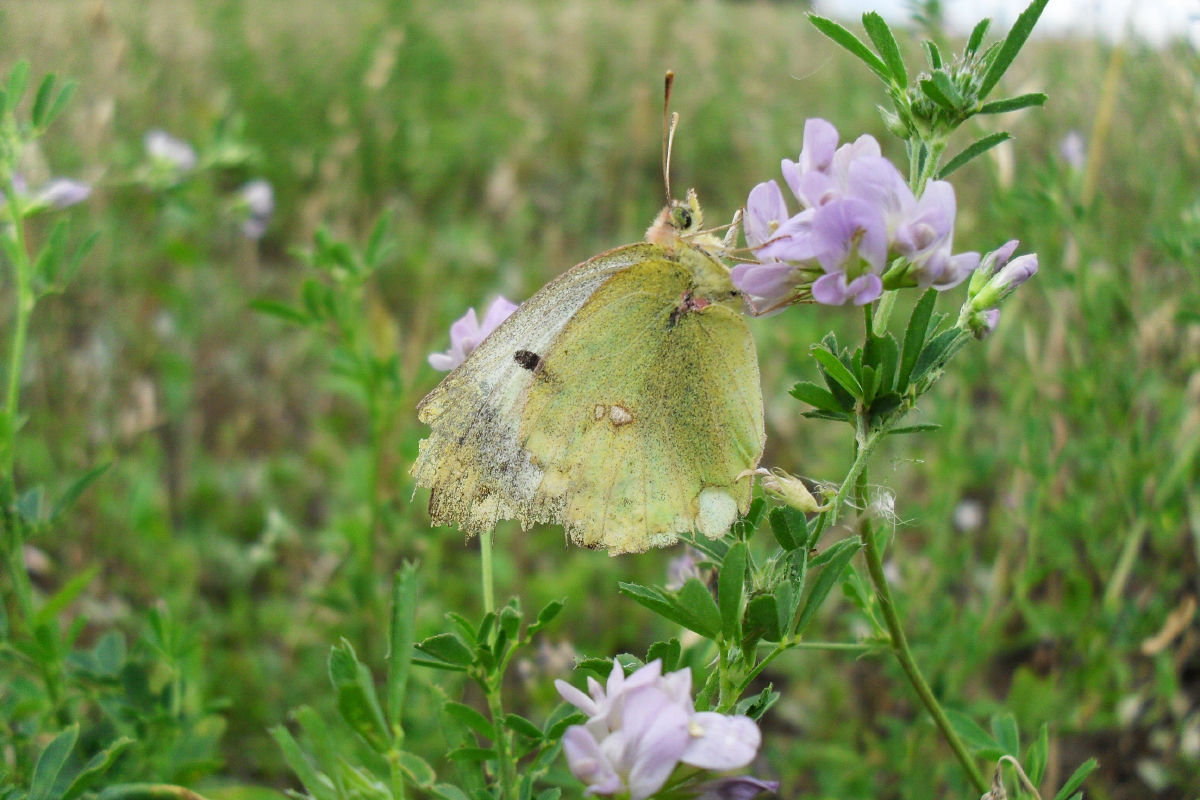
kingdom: Animalia
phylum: Arthropoda
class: Insecta
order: Lepidoptera
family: Pieridae
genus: Colias
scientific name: Colias hyale
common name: Pale clouded yellow
